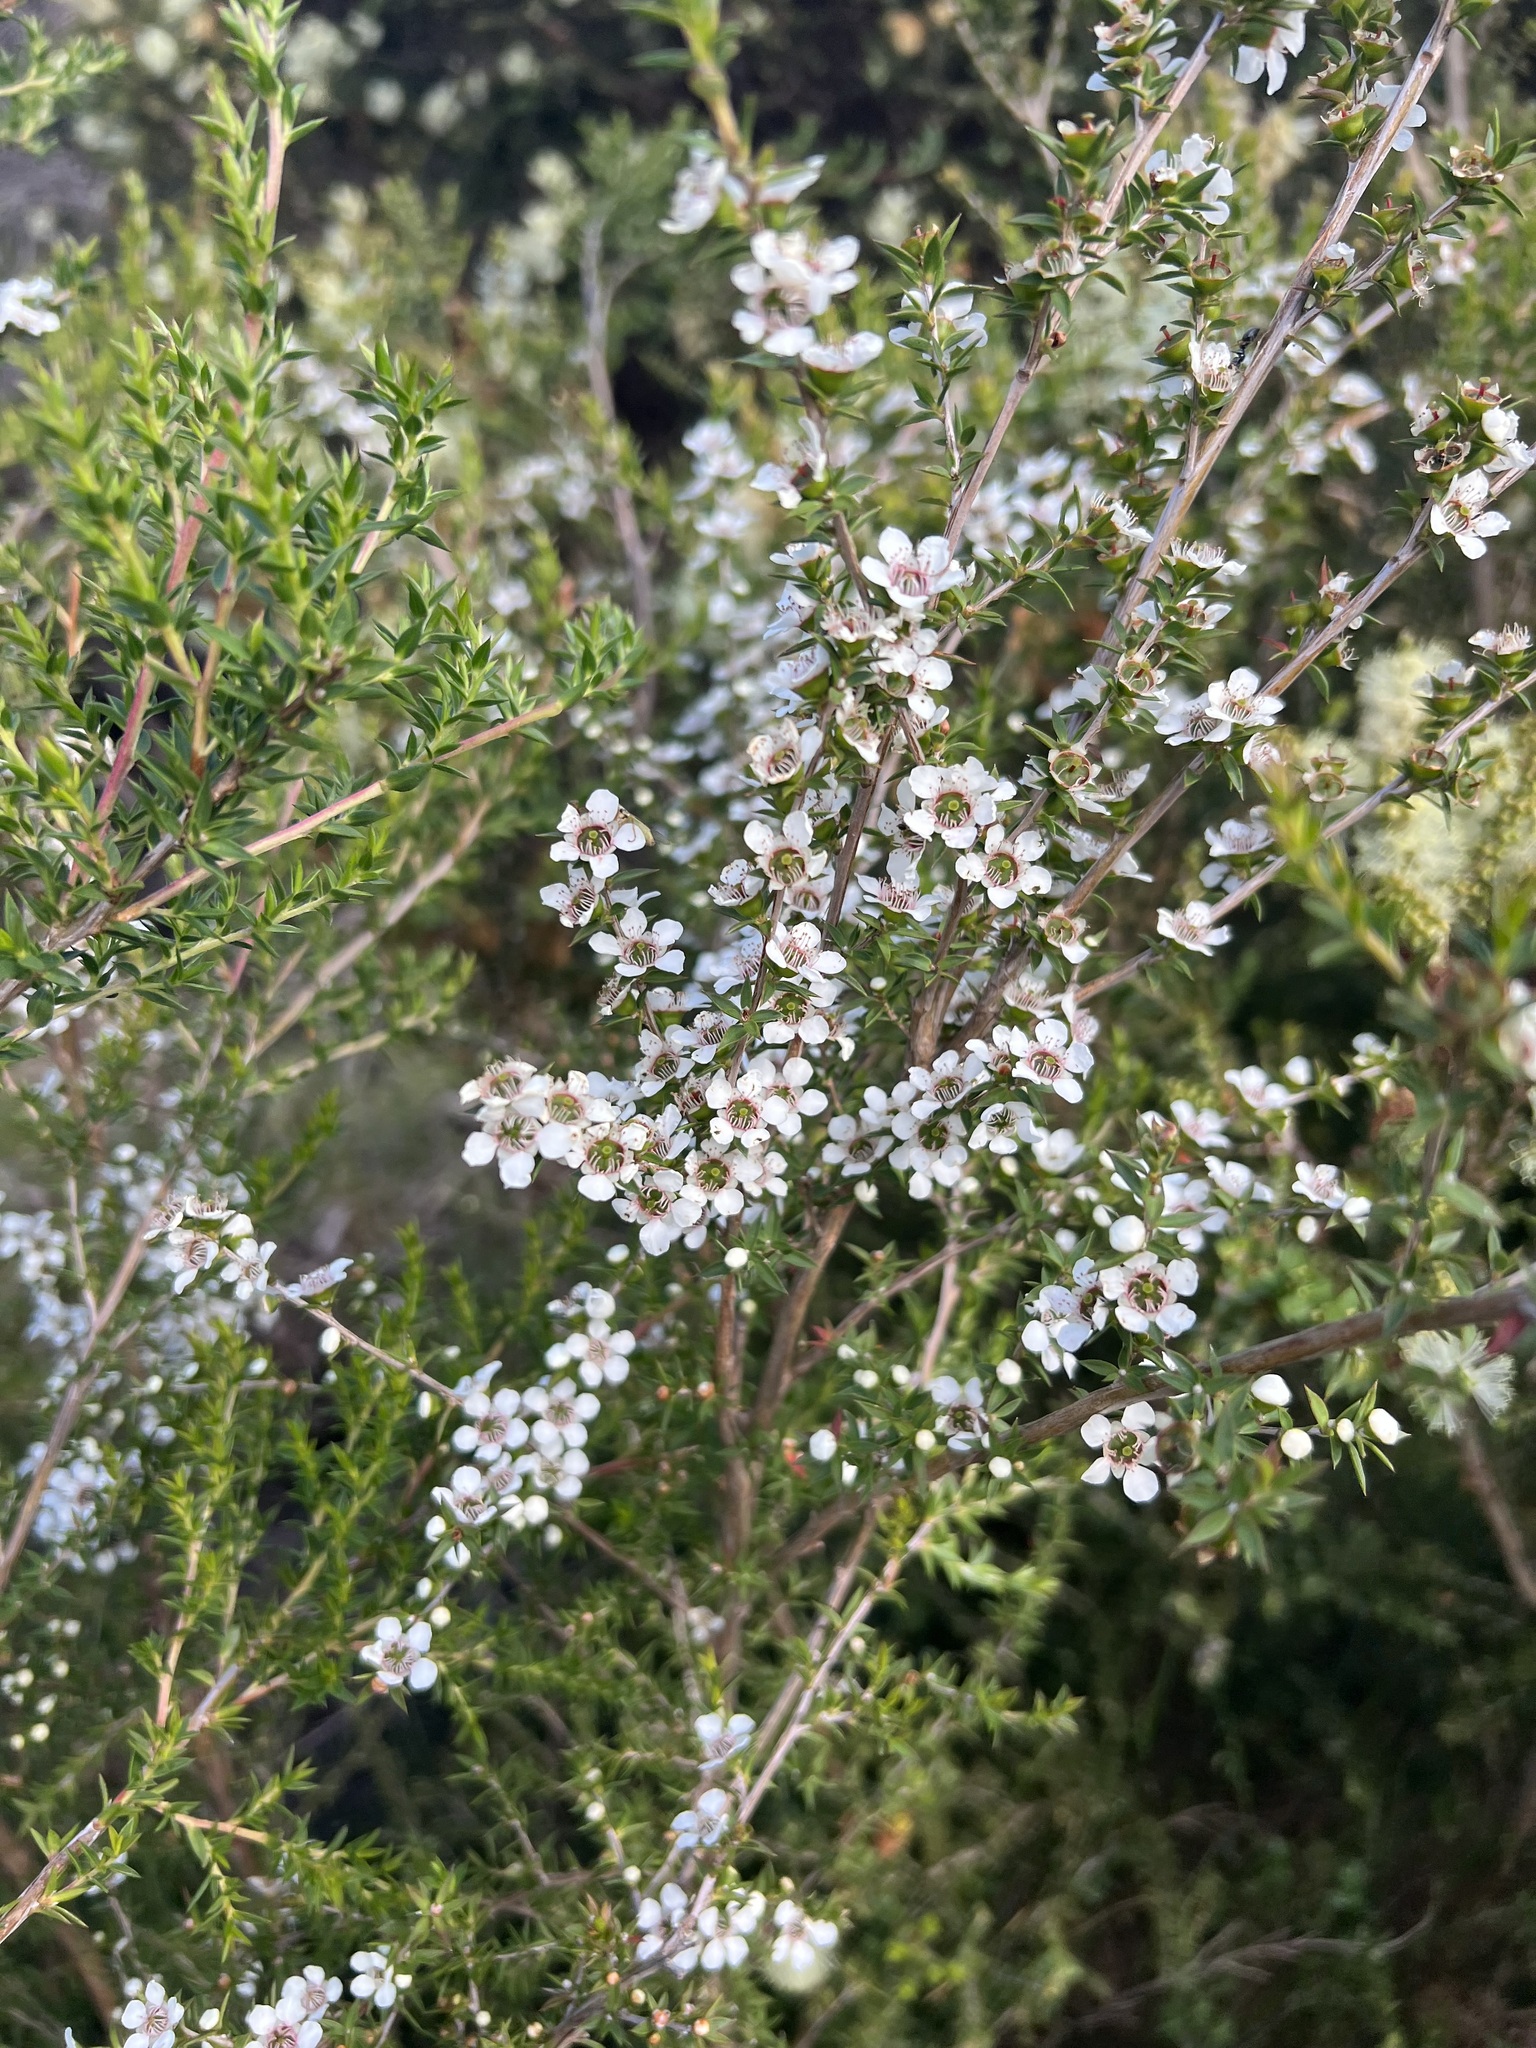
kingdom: Plantae
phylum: Tracheophyta
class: Magnoliopsida
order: Myrtales
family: Myrtaceae
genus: Leptospermum
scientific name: Leptospermum scoparium
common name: Broom tea-tree
